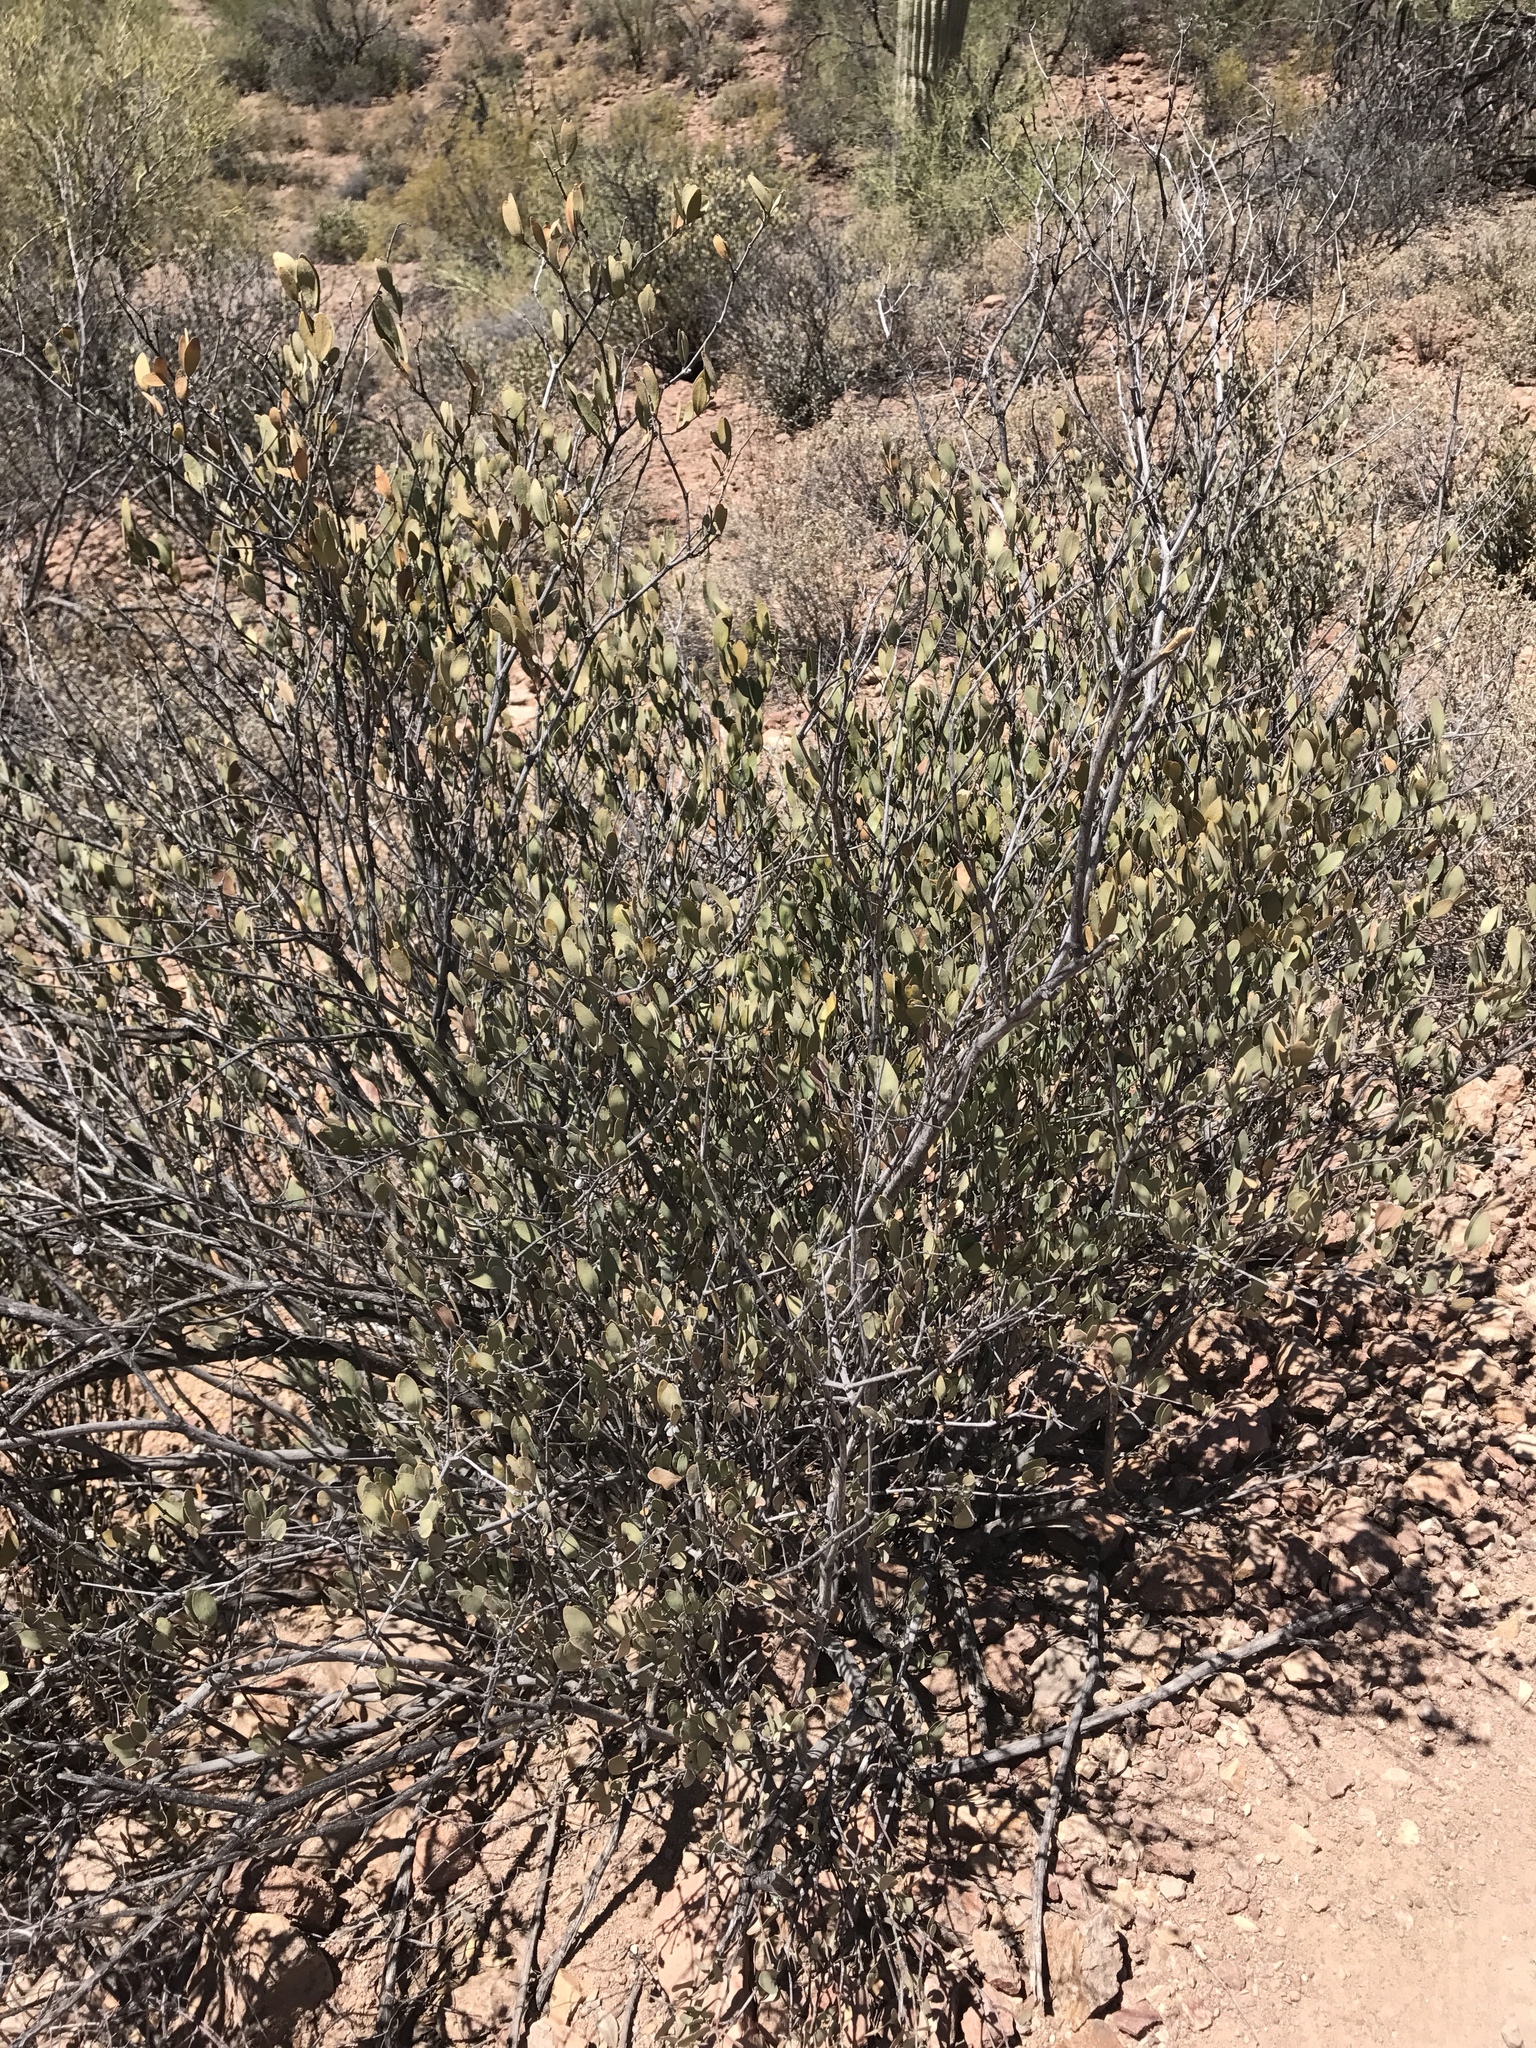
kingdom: Plantae
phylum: Tracheophyta
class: Magnoliopsida
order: Caryophyllales
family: Simmondsiaceae
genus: Simmondsia
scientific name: Simmondsia chinensis
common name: Jojoba
